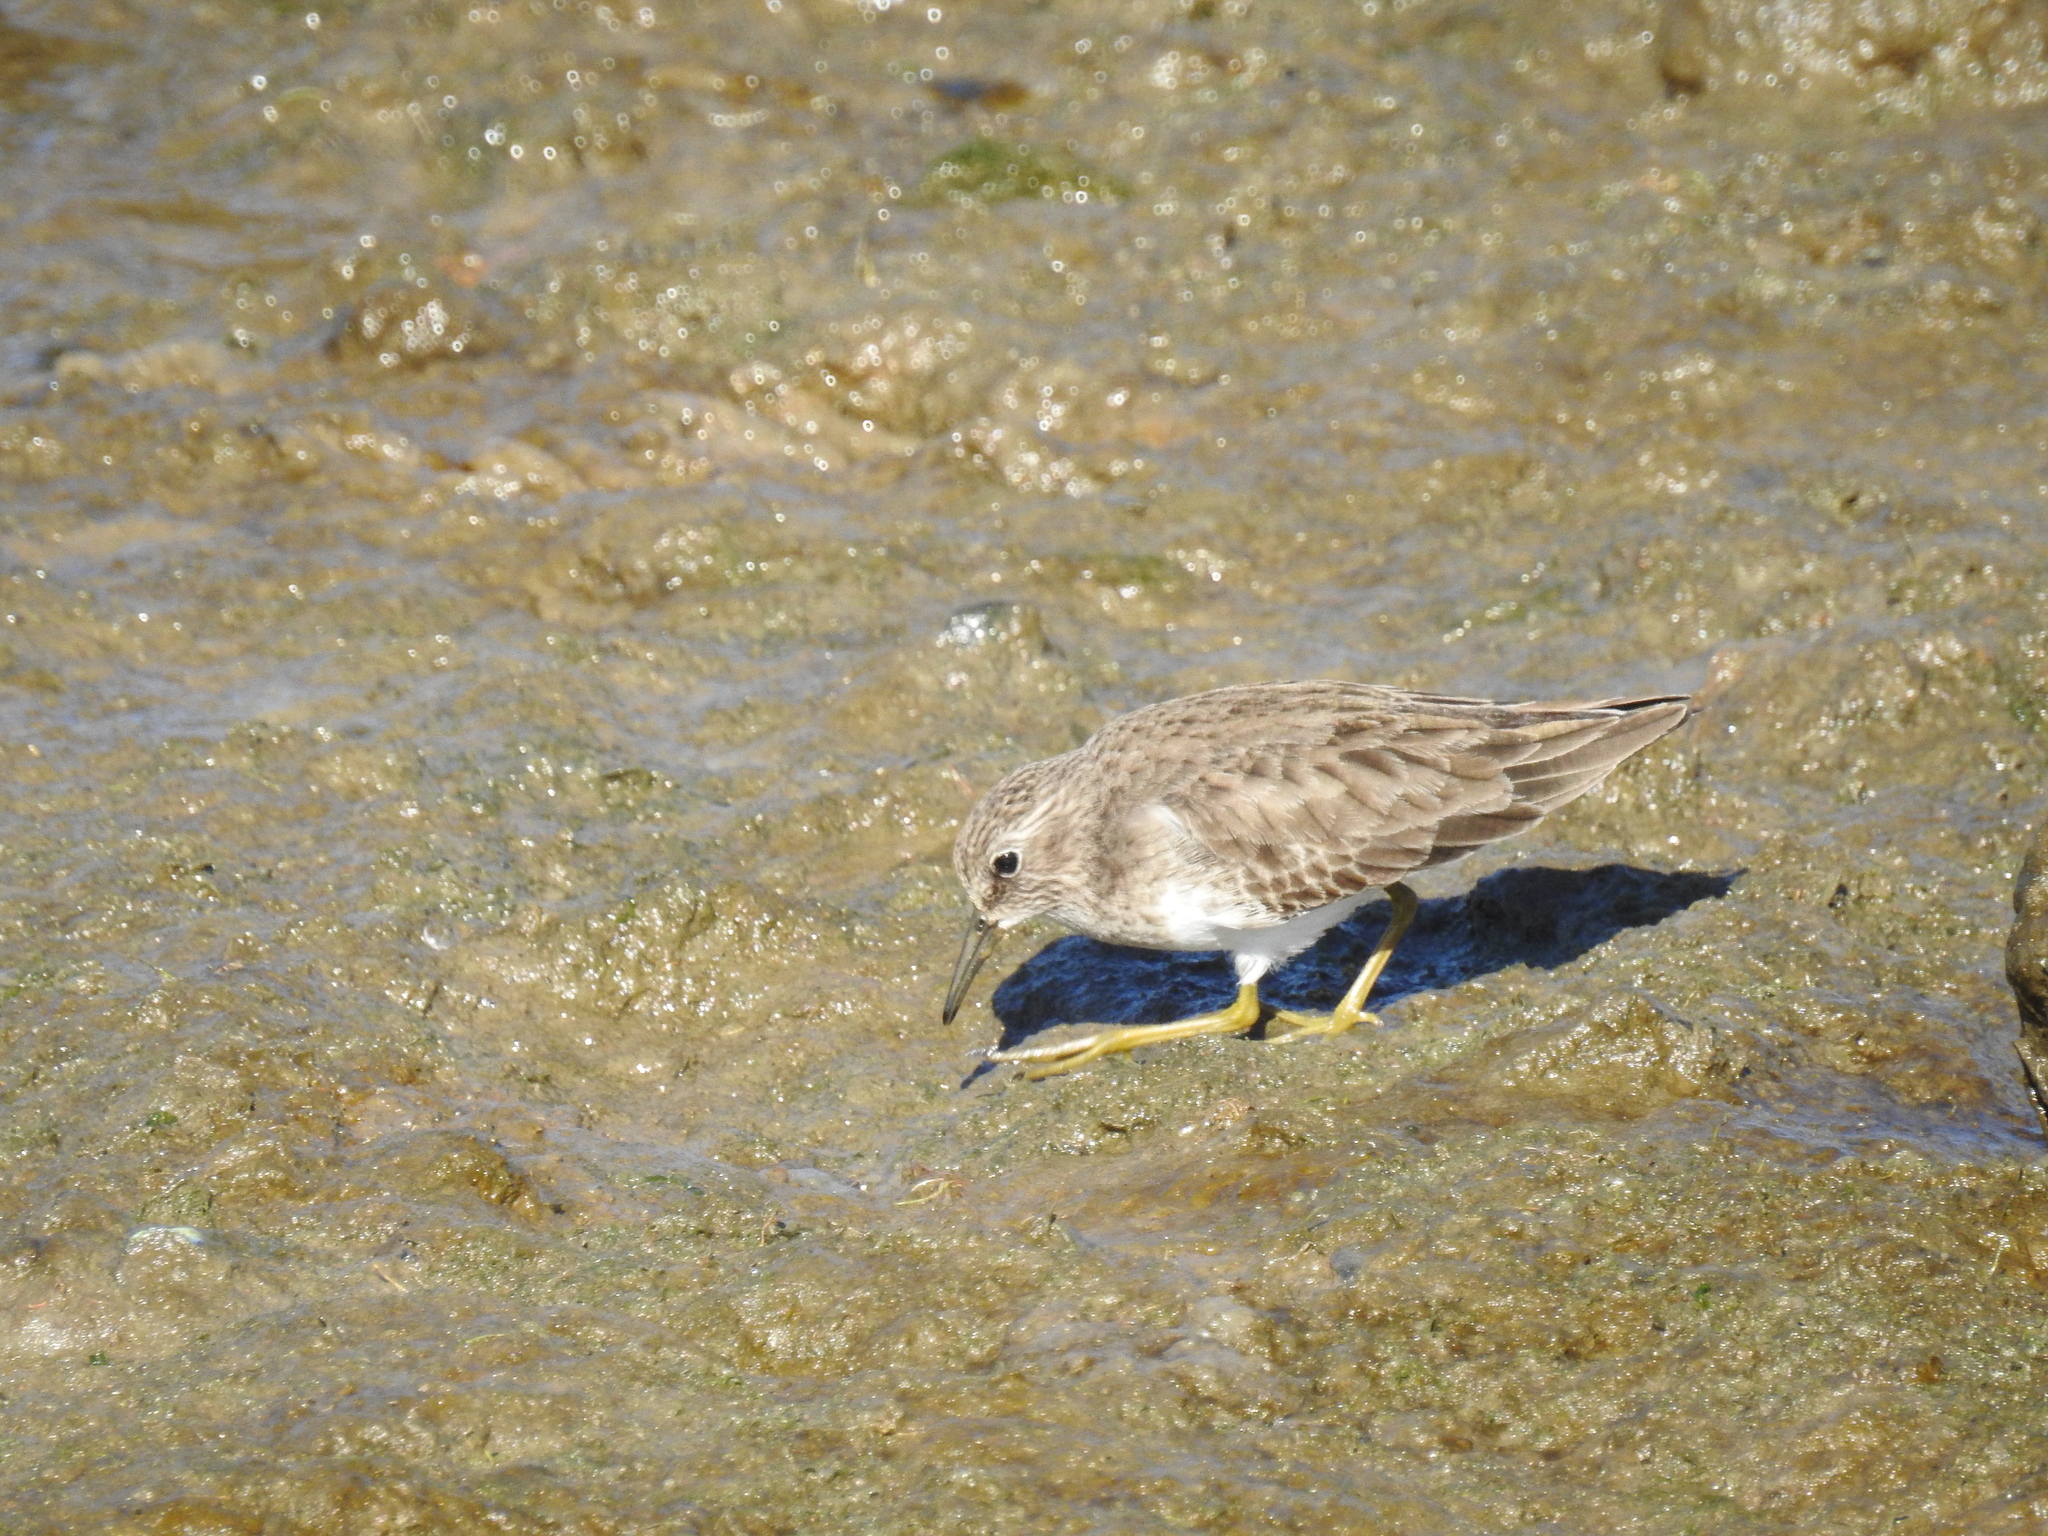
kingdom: Animalia
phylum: Chordata
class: Aves
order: Charadriiformes
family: Scolopacidae
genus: Calidris
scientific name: Calidris minutilla
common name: Least sandpiper
